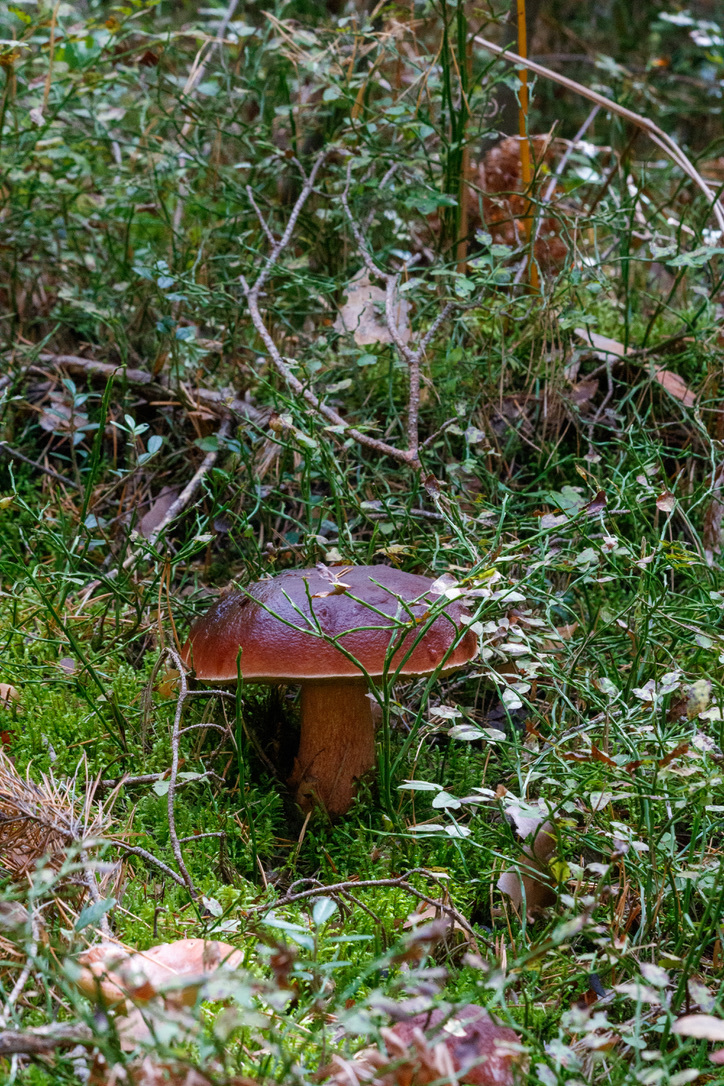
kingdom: Fungi
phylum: Basidiomycota
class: Agaricomycetes
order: Boletales
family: Boletaceae
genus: Boletus
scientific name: Boletus pinophilus
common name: Pine bolete
